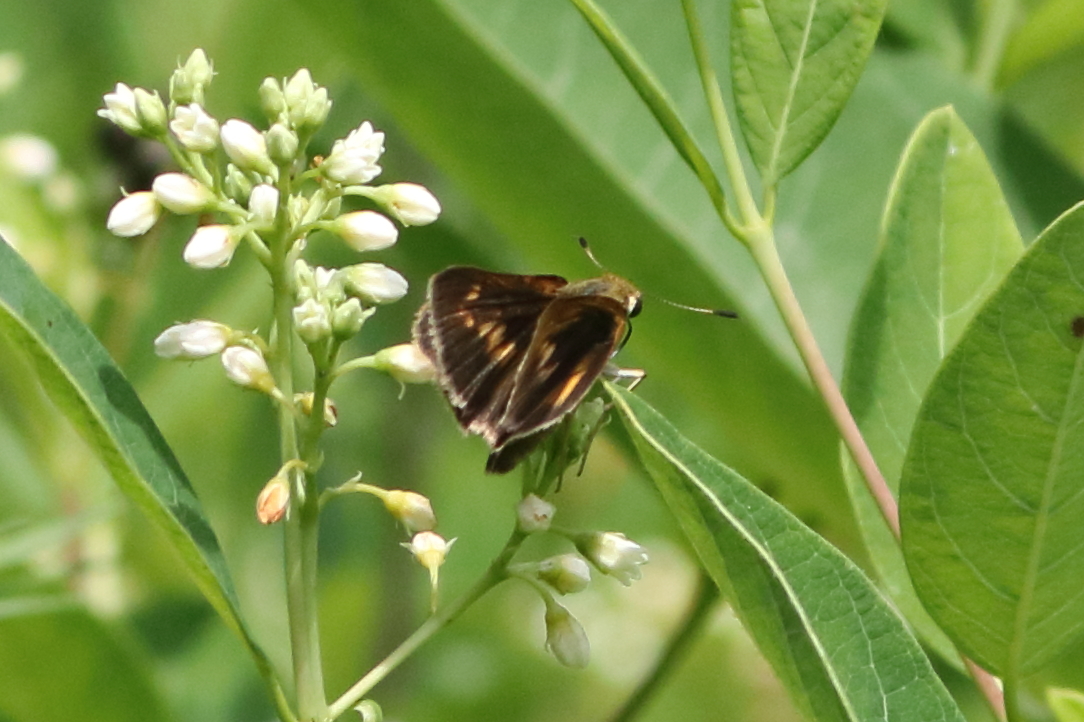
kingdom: Animalia
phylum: Arthropoda
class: Insecta
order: Lepidoptera
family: Hesperiidae
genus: Euphyes
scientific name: Euphyes dion
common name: Dion skipper
